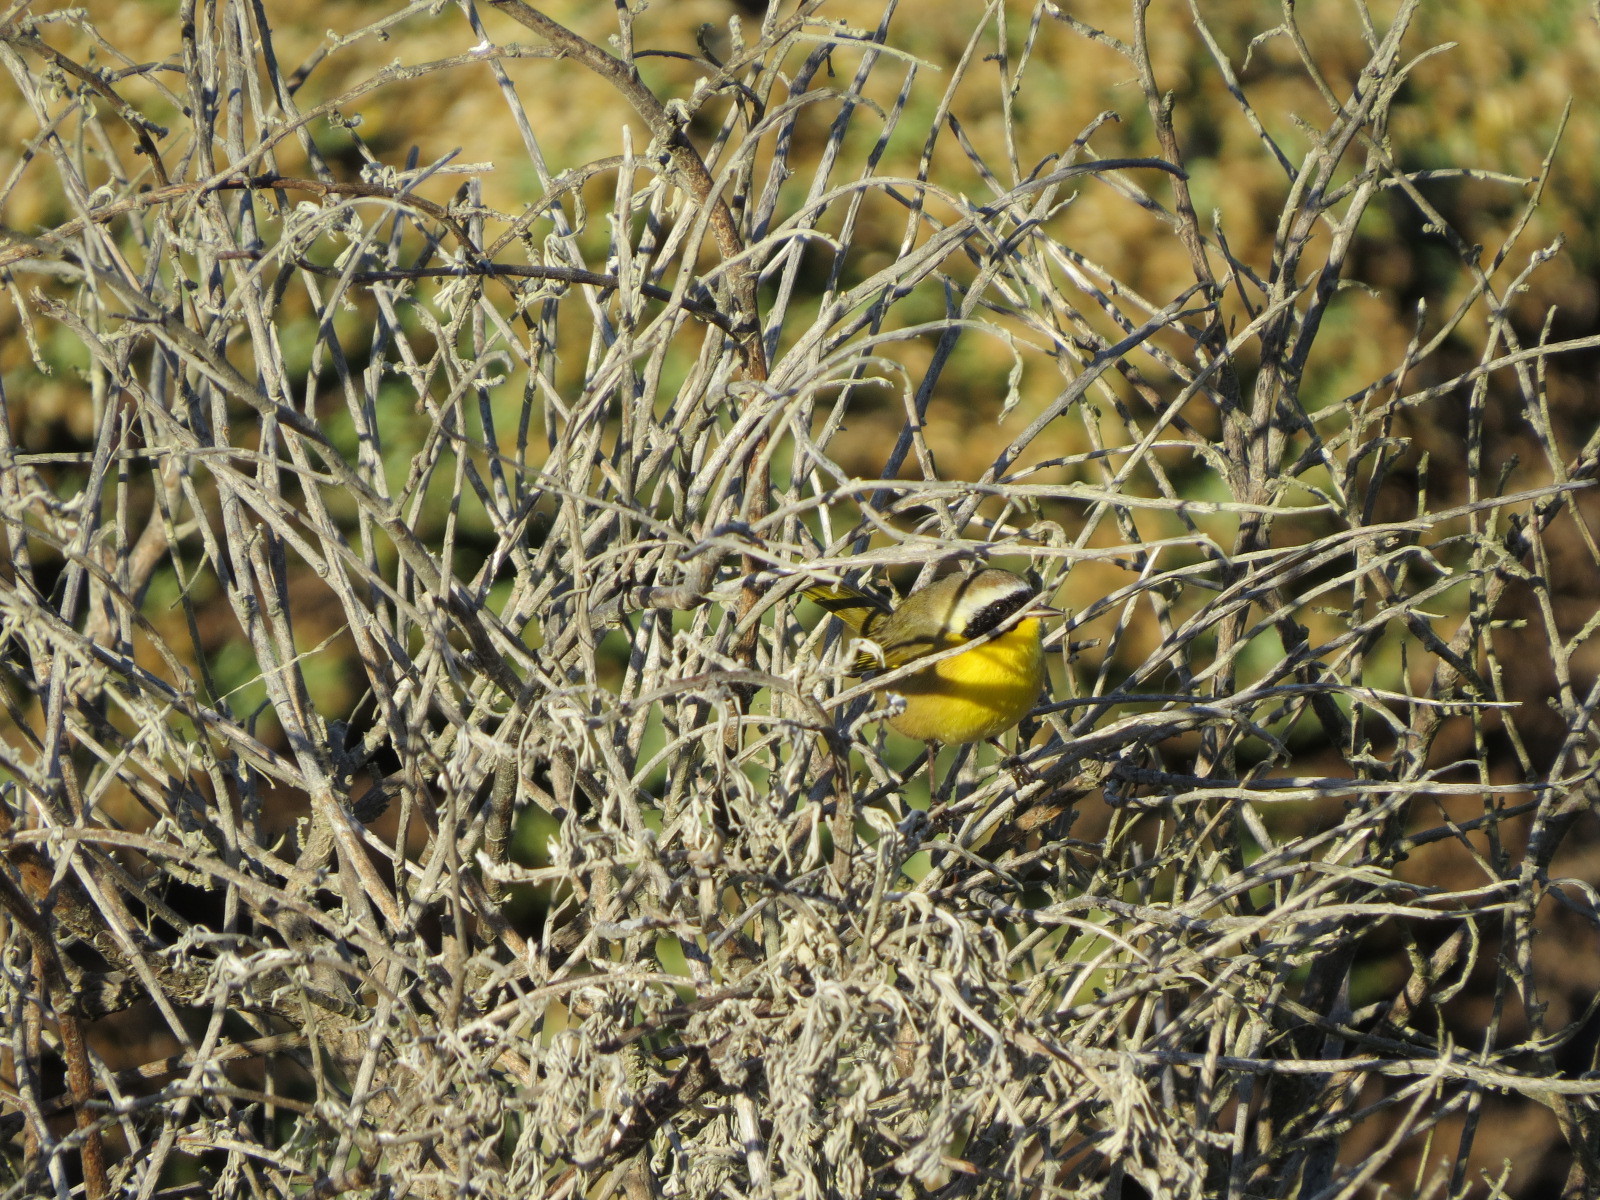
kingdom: Animalia
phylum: Chordata
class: Aves
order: Passeriformes
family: Parulidae
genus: Geothlypis
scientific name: Geothlypis trichas
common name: Common yellowthroat
